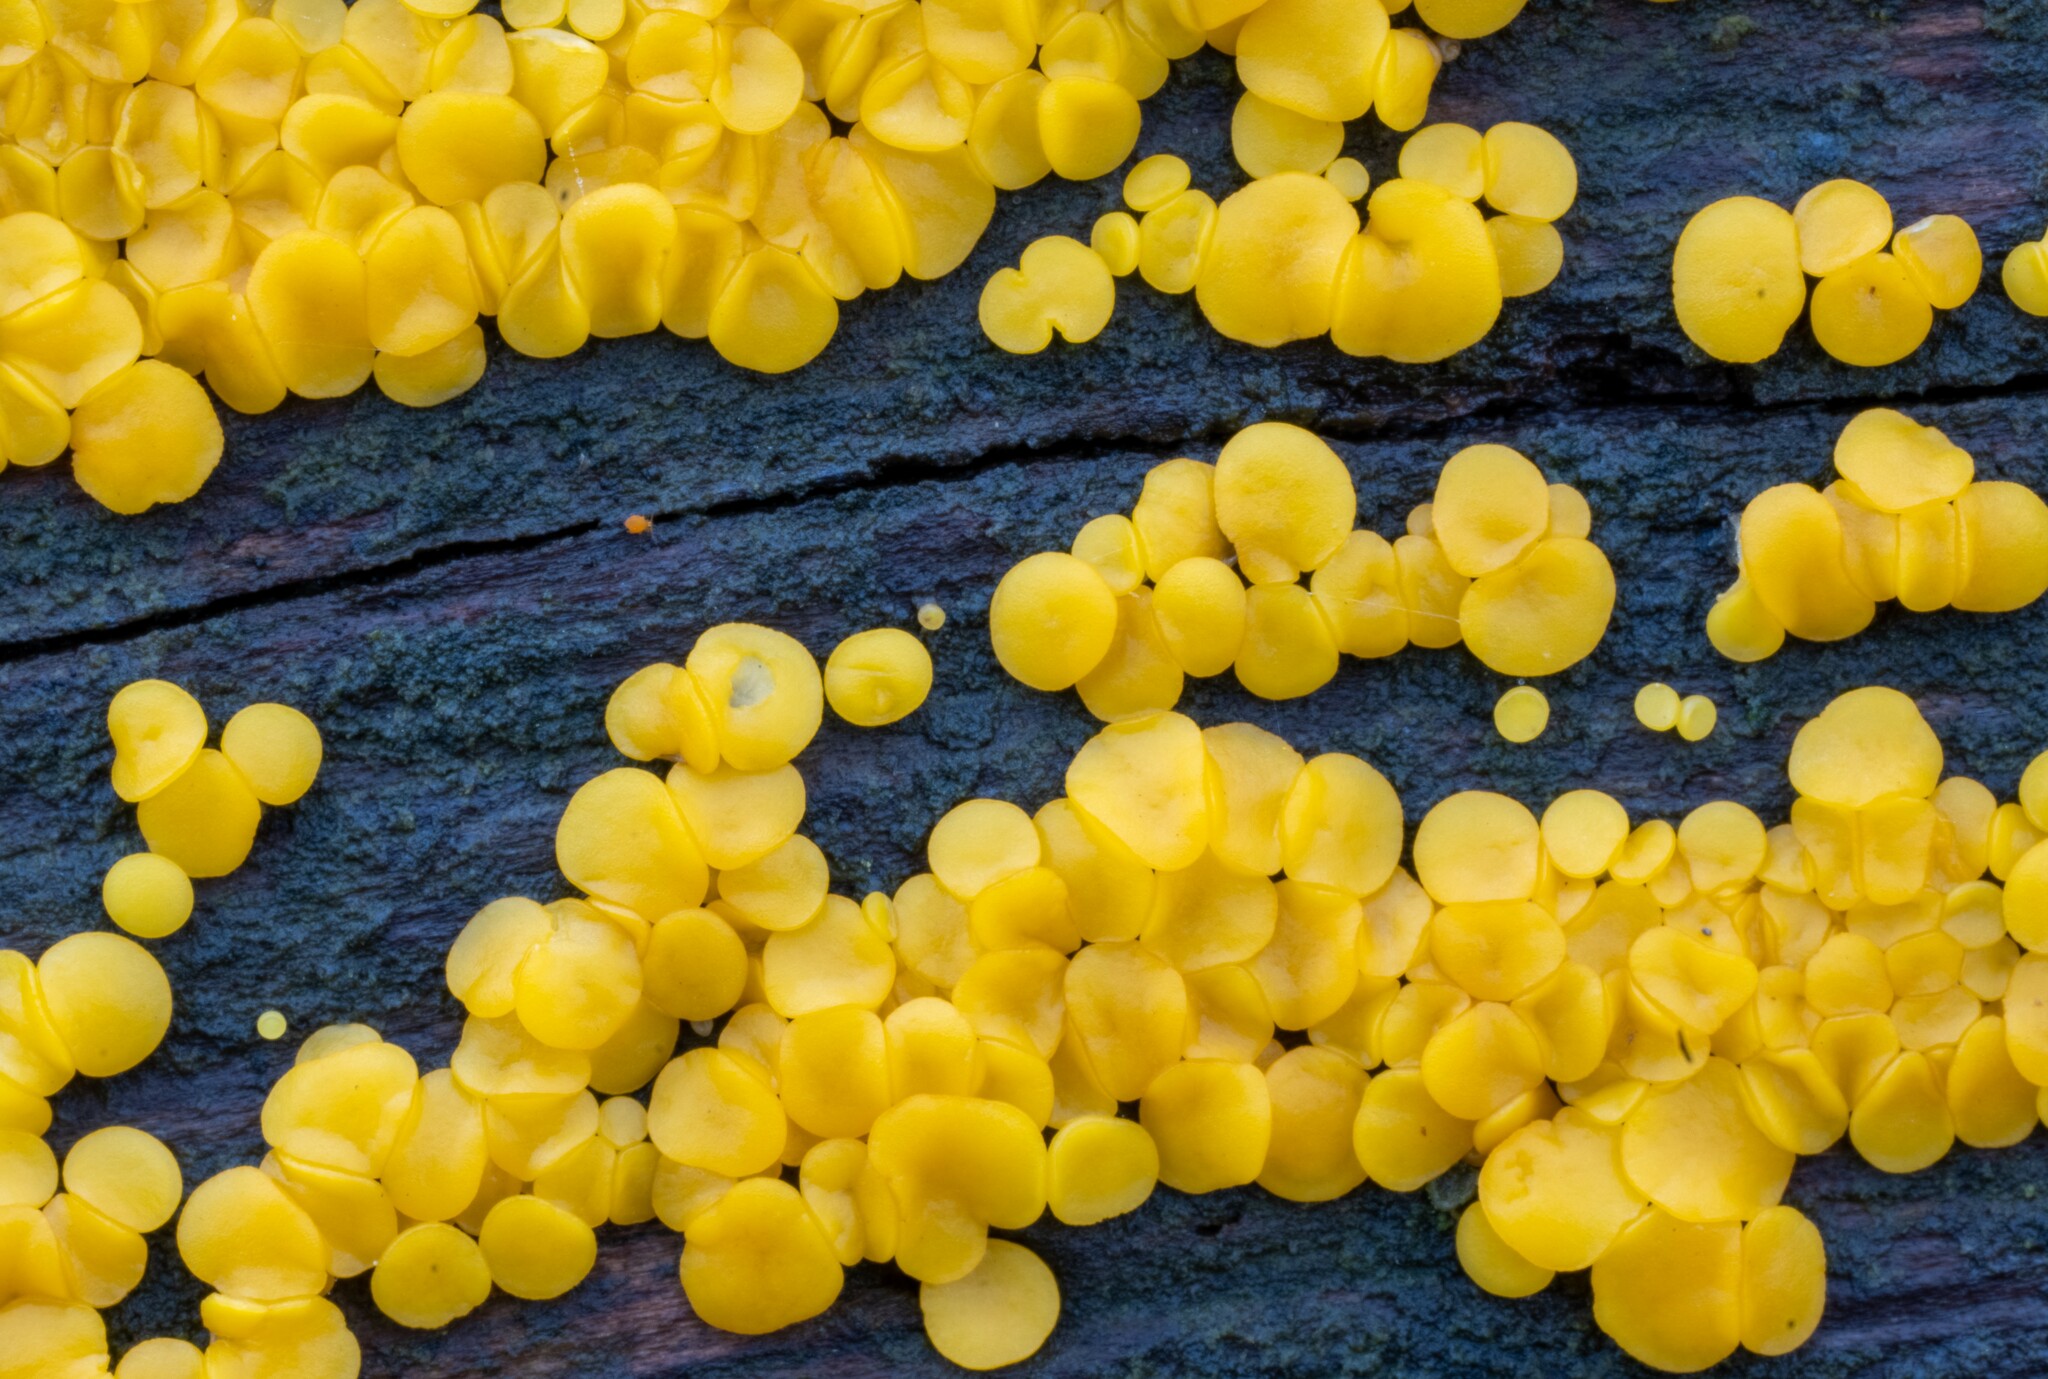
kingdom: Fungi
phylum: Ascomycota
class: Leotiomycetes
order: Helotiales
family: Pezizellaceae
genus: Calycina
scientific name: Calycina citrina
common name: Yellow fairy cups
